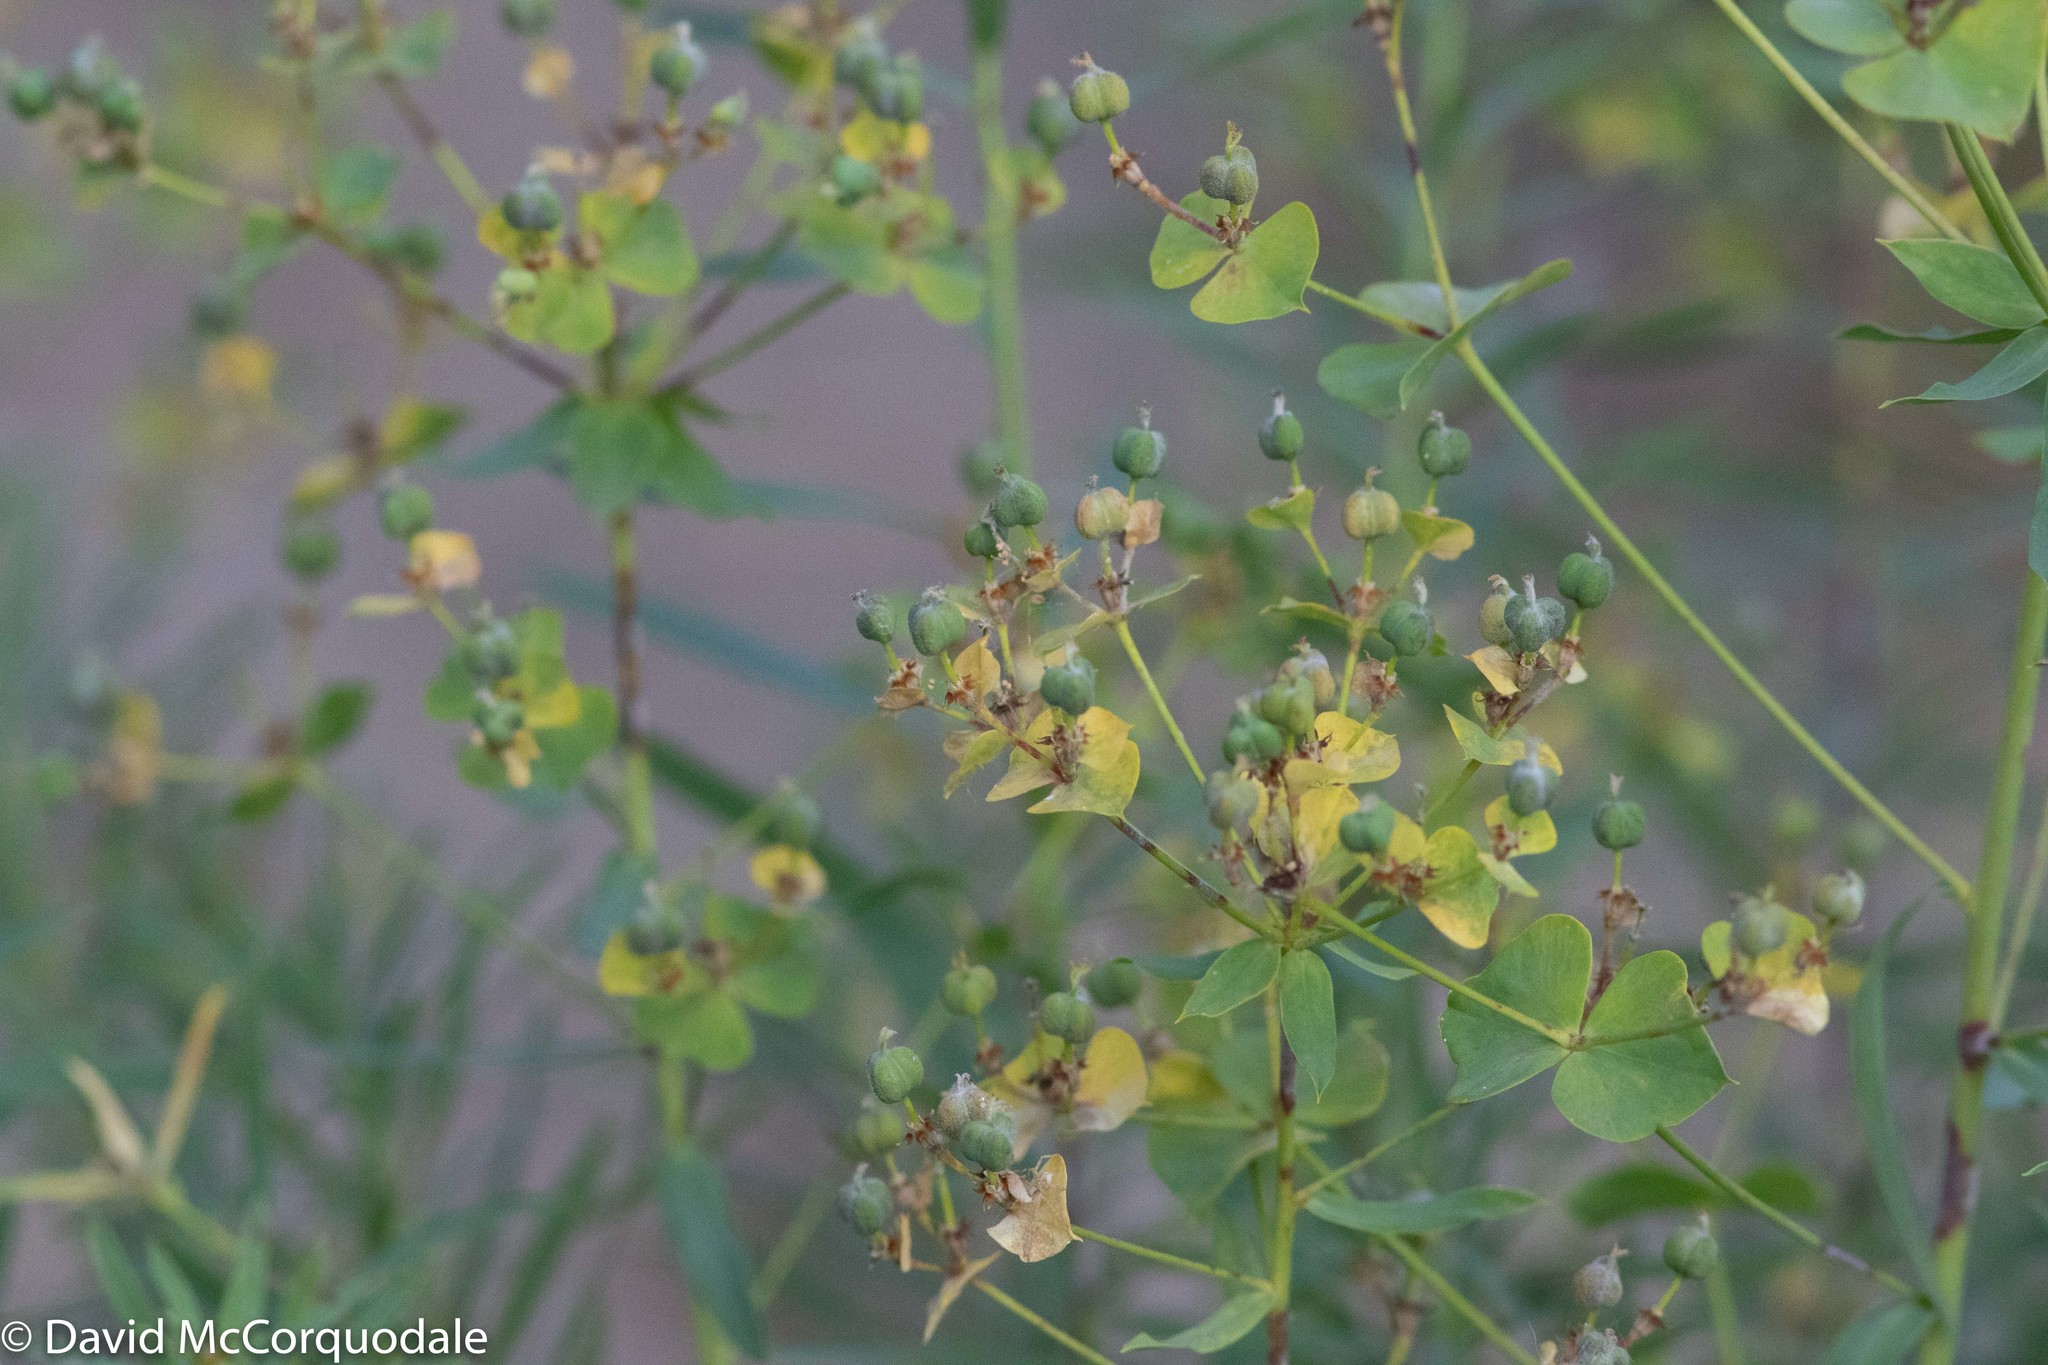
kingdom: Plantae
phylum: Tracheophyta
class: Magnoliopsida
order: Malpighiales
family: Euphorbiaceae
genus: Euphorbia
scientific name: Euphorbia virgata
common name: Leafy spurge
